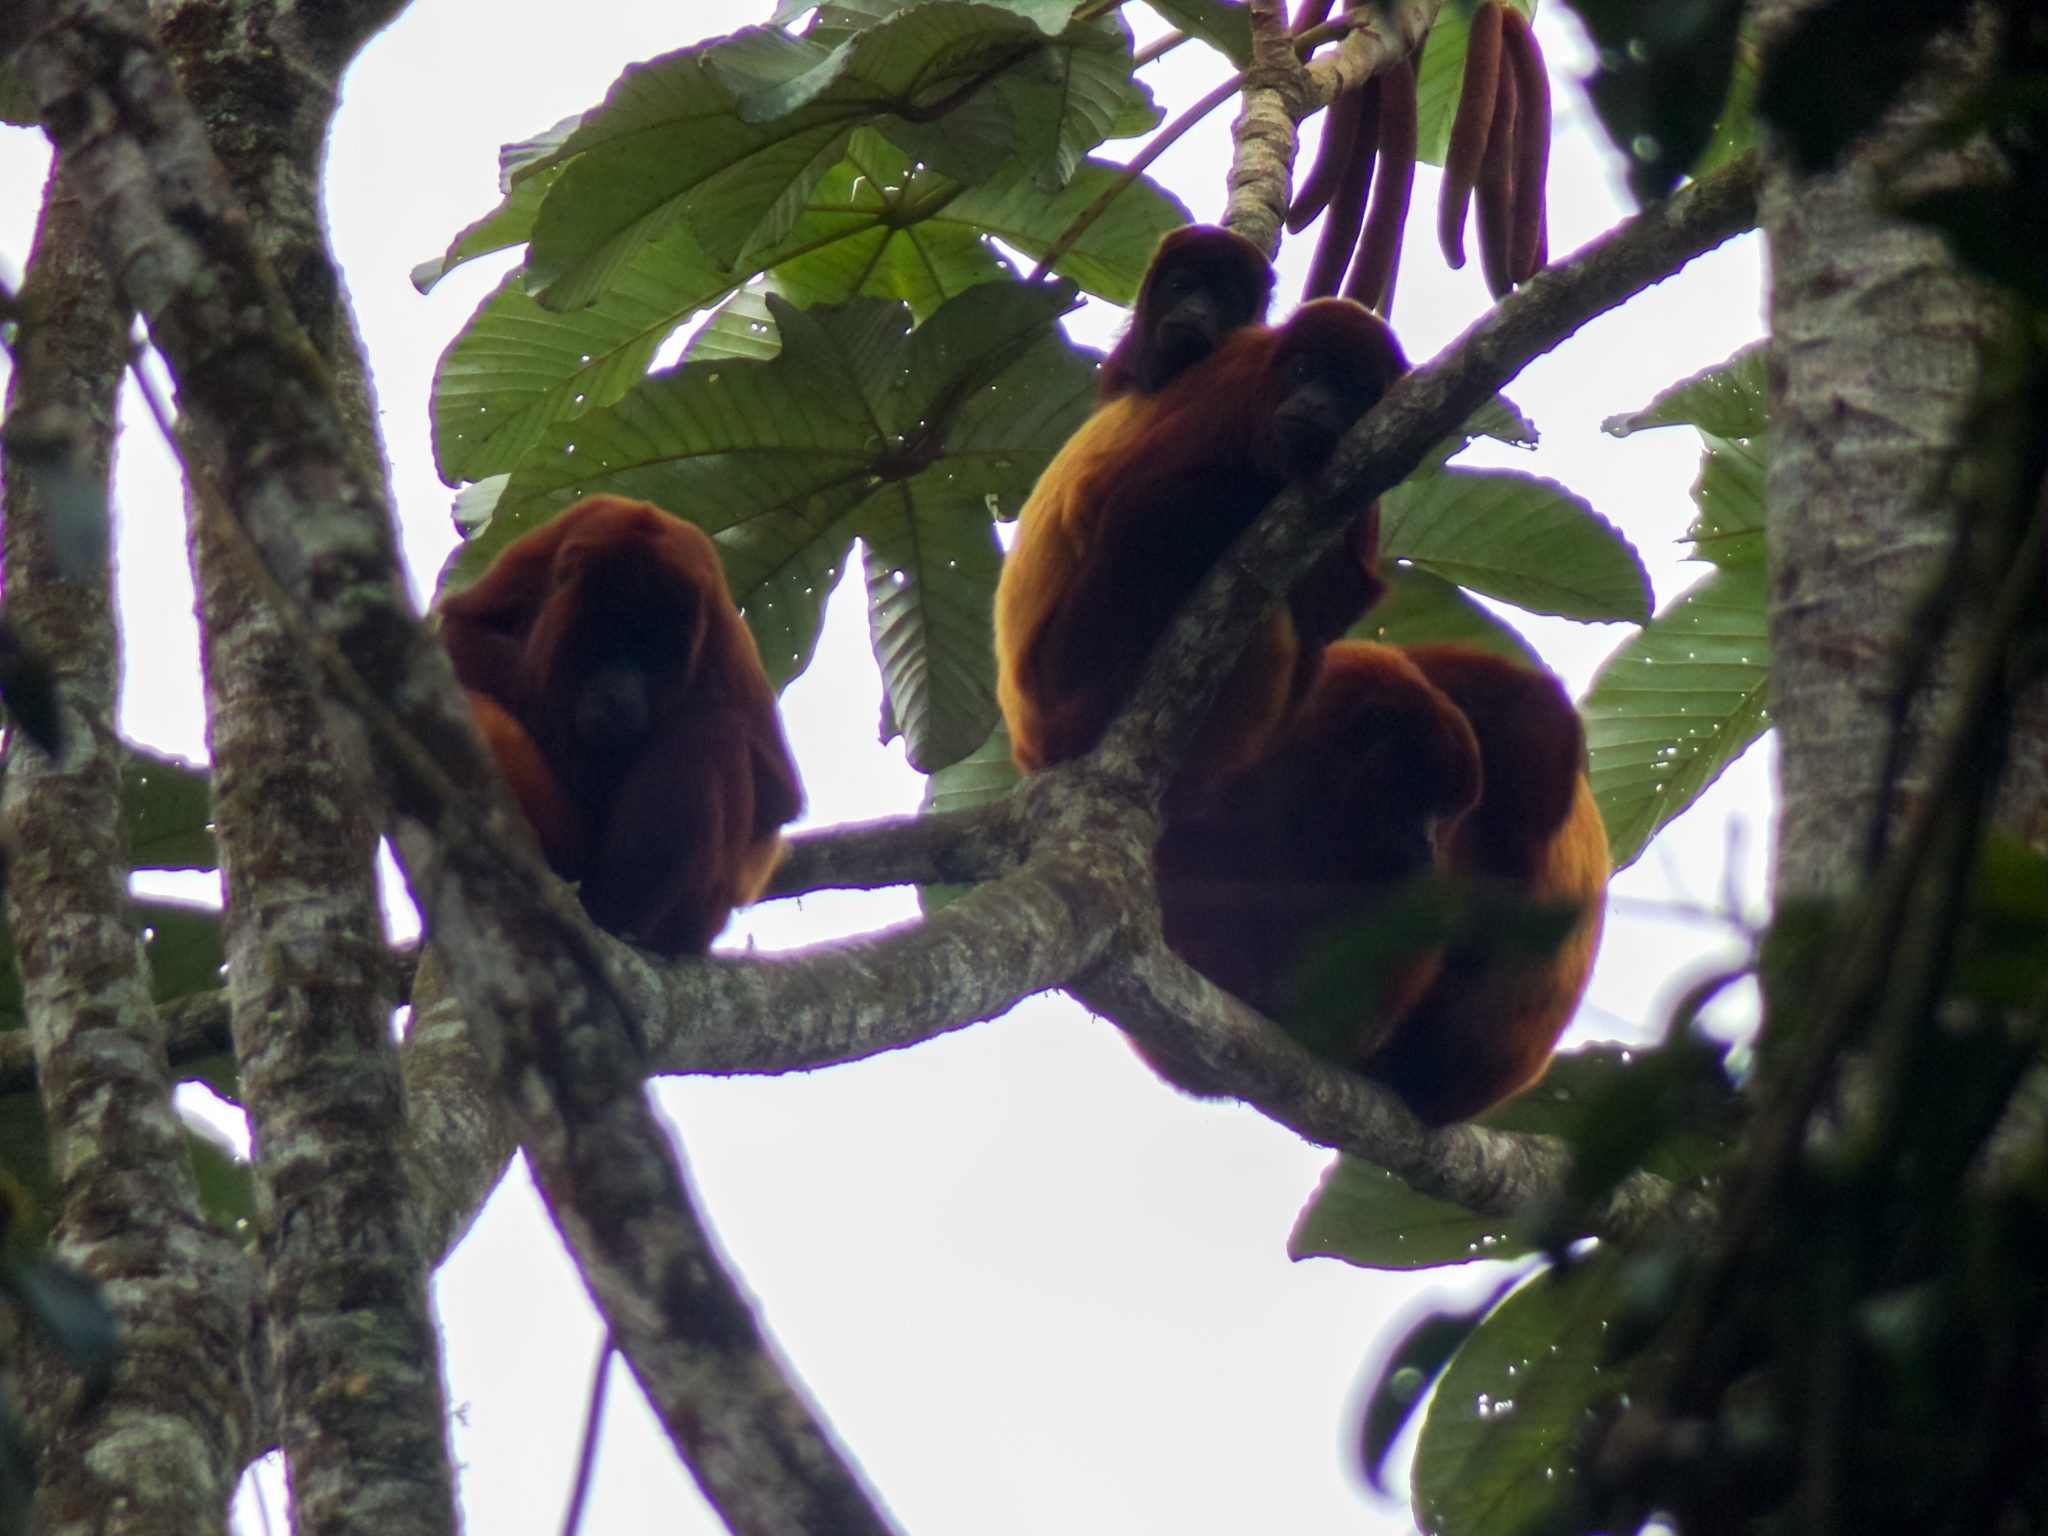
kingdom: Animalia
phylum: Chordata
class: Mammalia
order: Primates
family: Atelidae
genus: Alouatta
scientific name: Alouatta seniculus
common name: Venezuelan red howler
